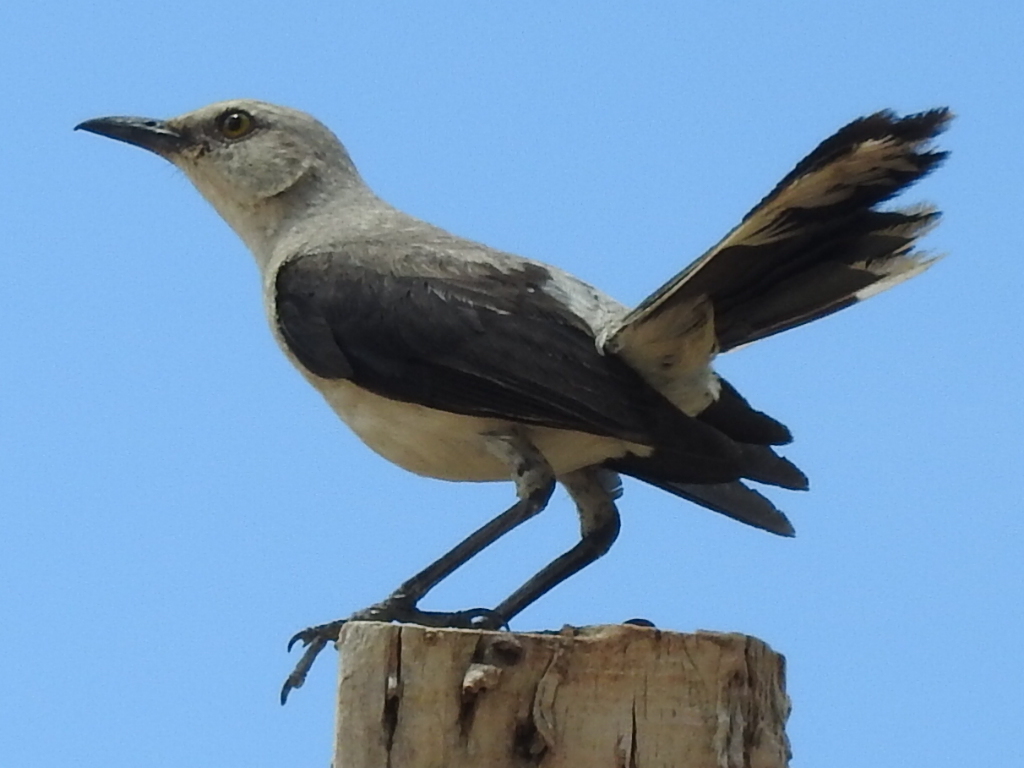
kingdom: Animalia
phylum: Chordata
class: Aves
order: Passeriformes
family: Mimidae
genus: Mimus
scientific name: Mimus gilvus
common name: Tropical mockingbird
